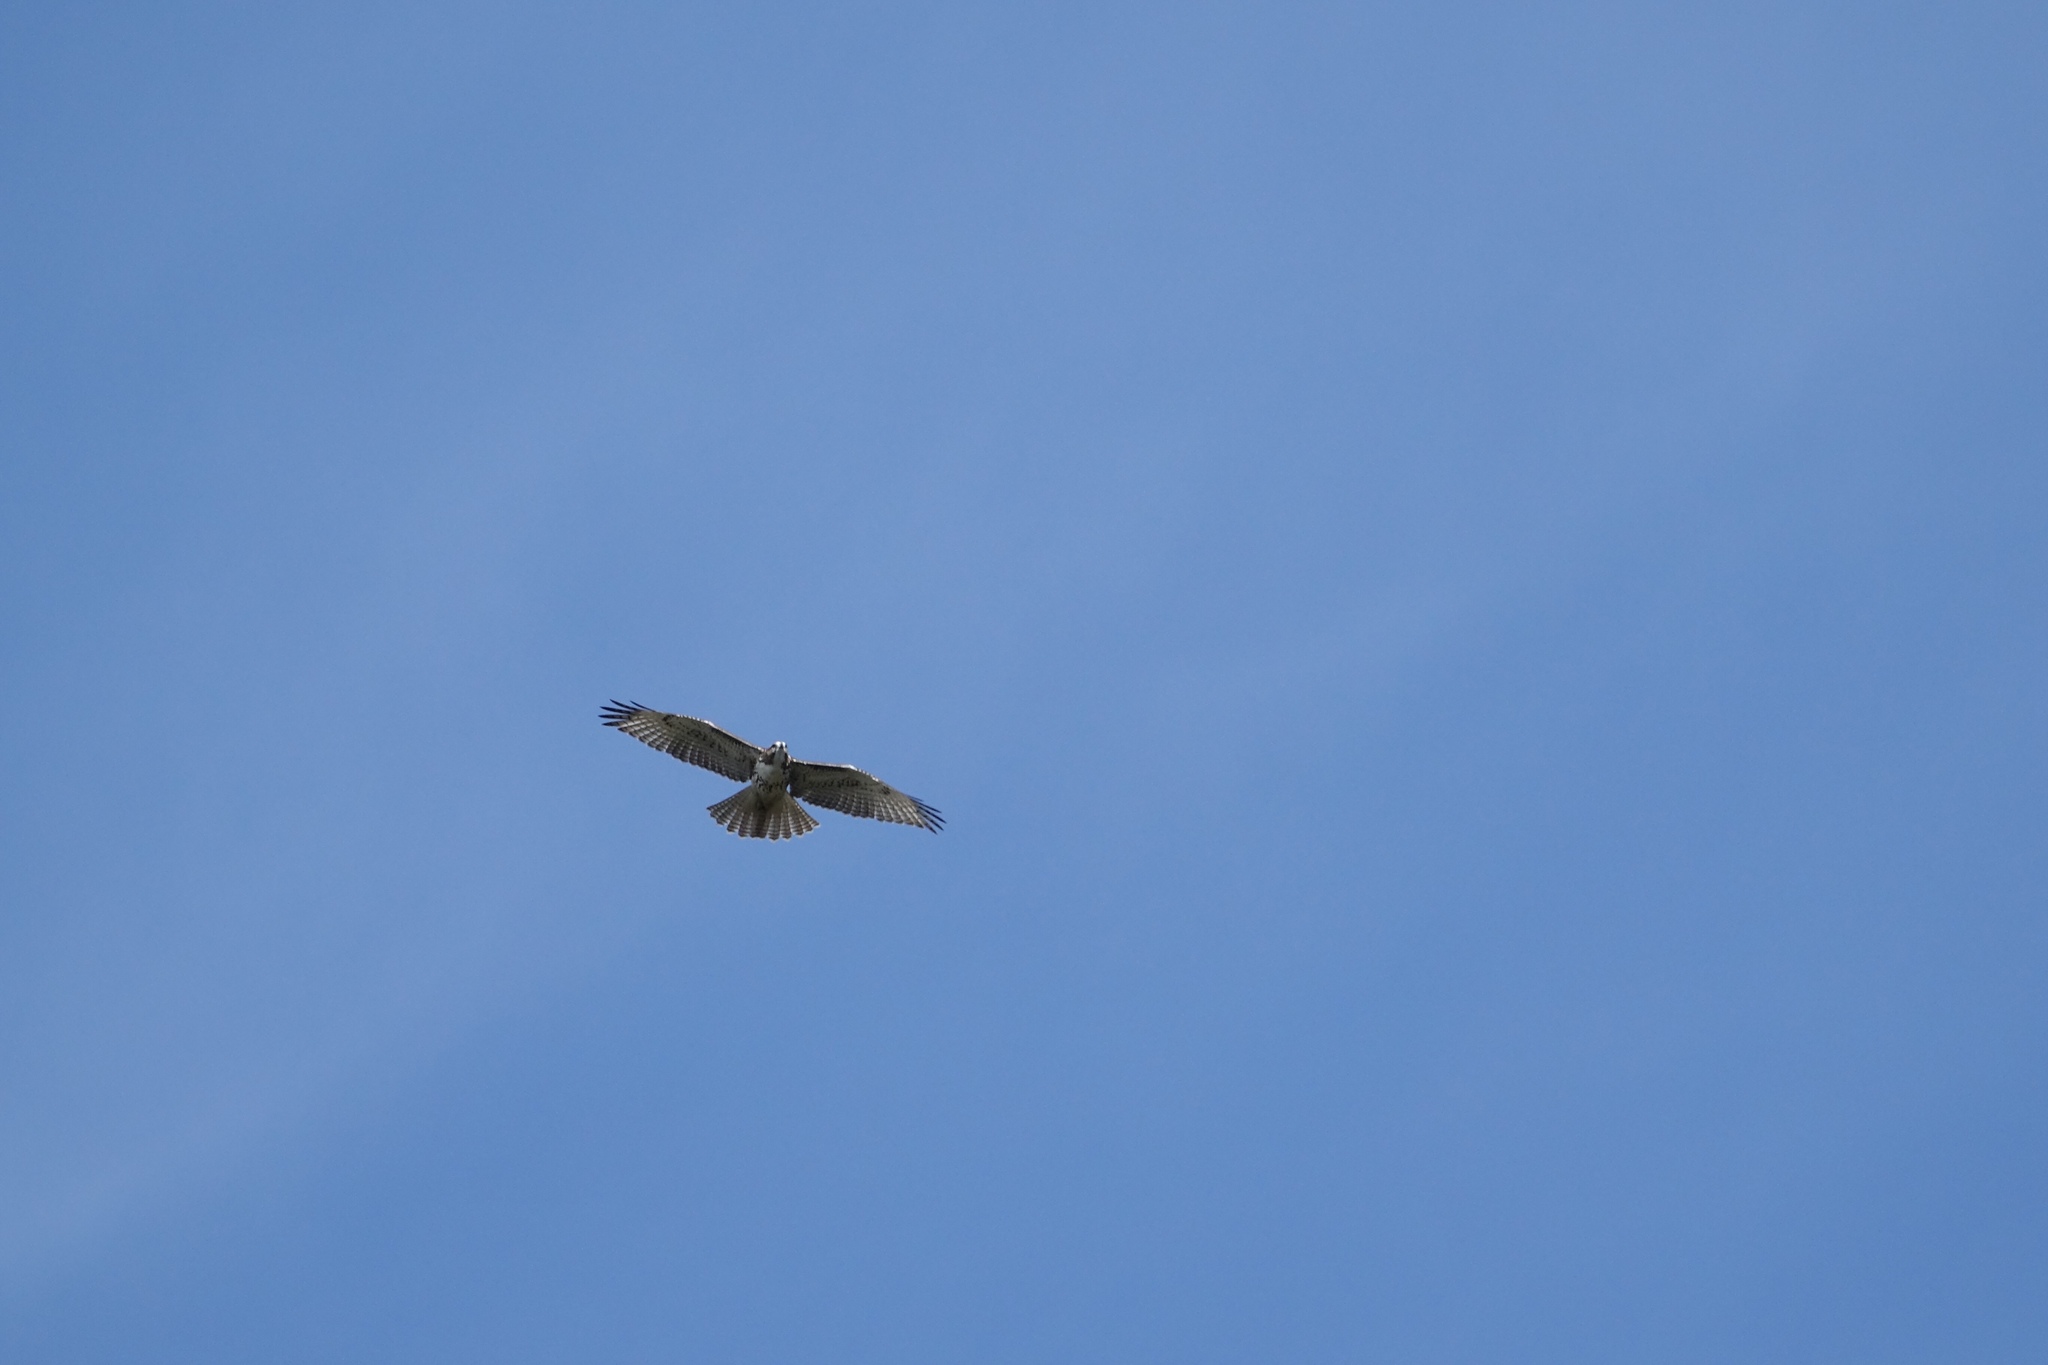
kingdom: Animalia
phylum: Chordata
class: Aves
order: Accipitriformes
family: Accipitridae
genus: Buteo
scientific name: Buteo jamaicensis
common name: Red-tailed hawk
